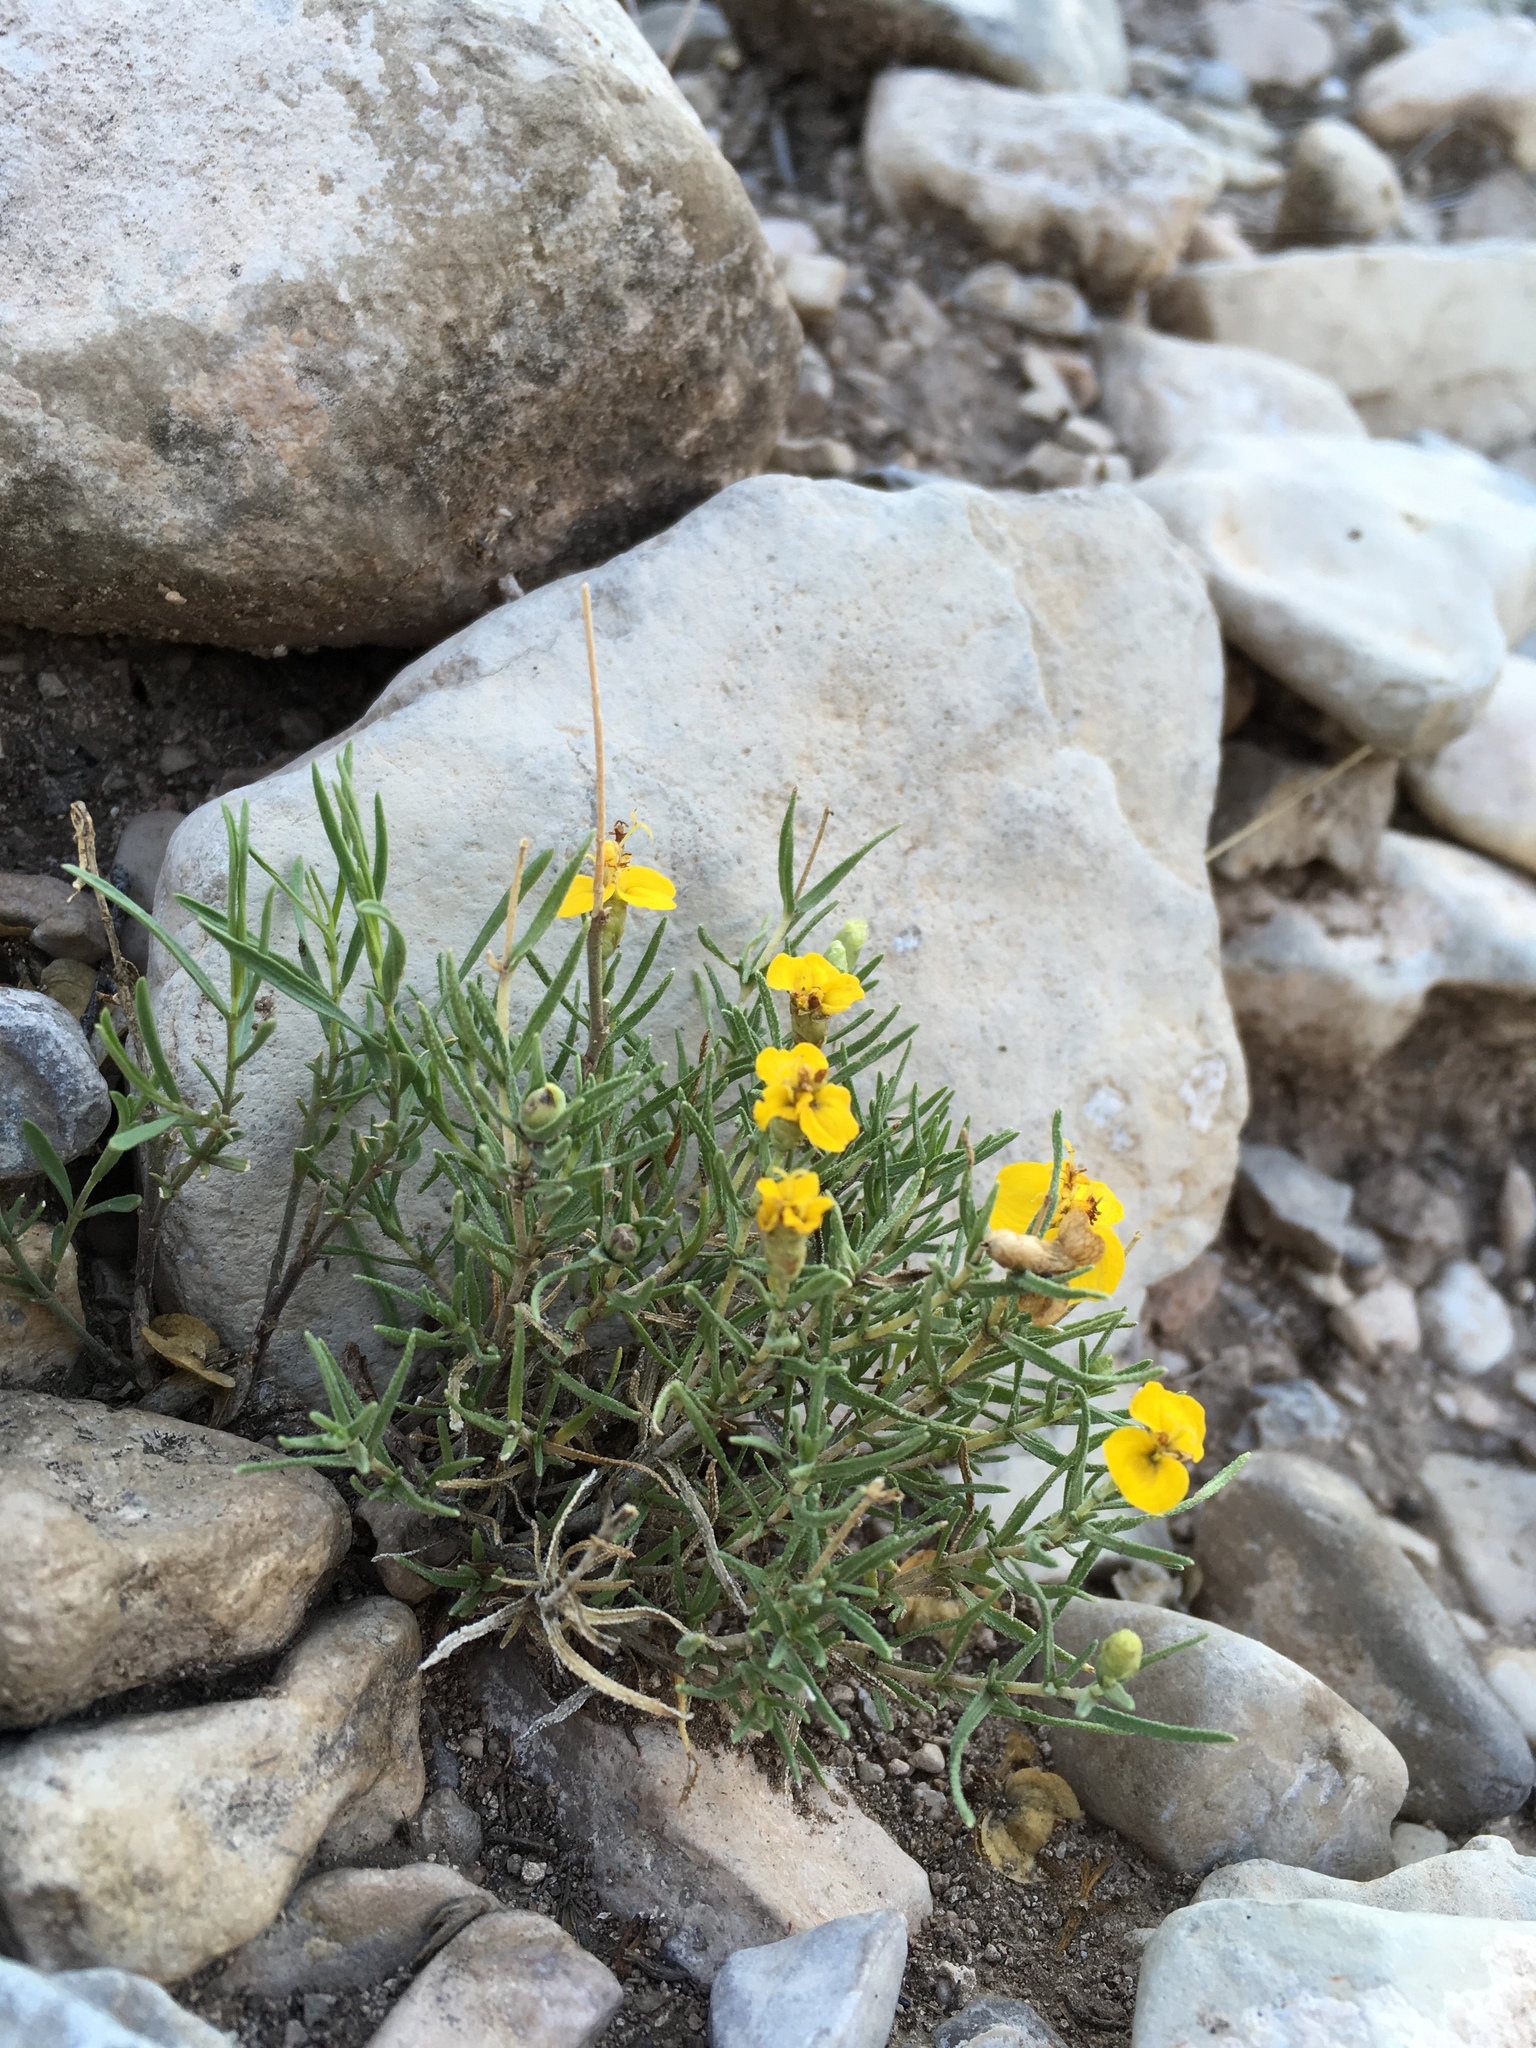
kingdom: Plantae
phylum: Tracheophyta
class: Magnoliopsida
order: Asterales
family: Asteraceae
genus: Zinnia
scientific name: Zinnia grandiflora
